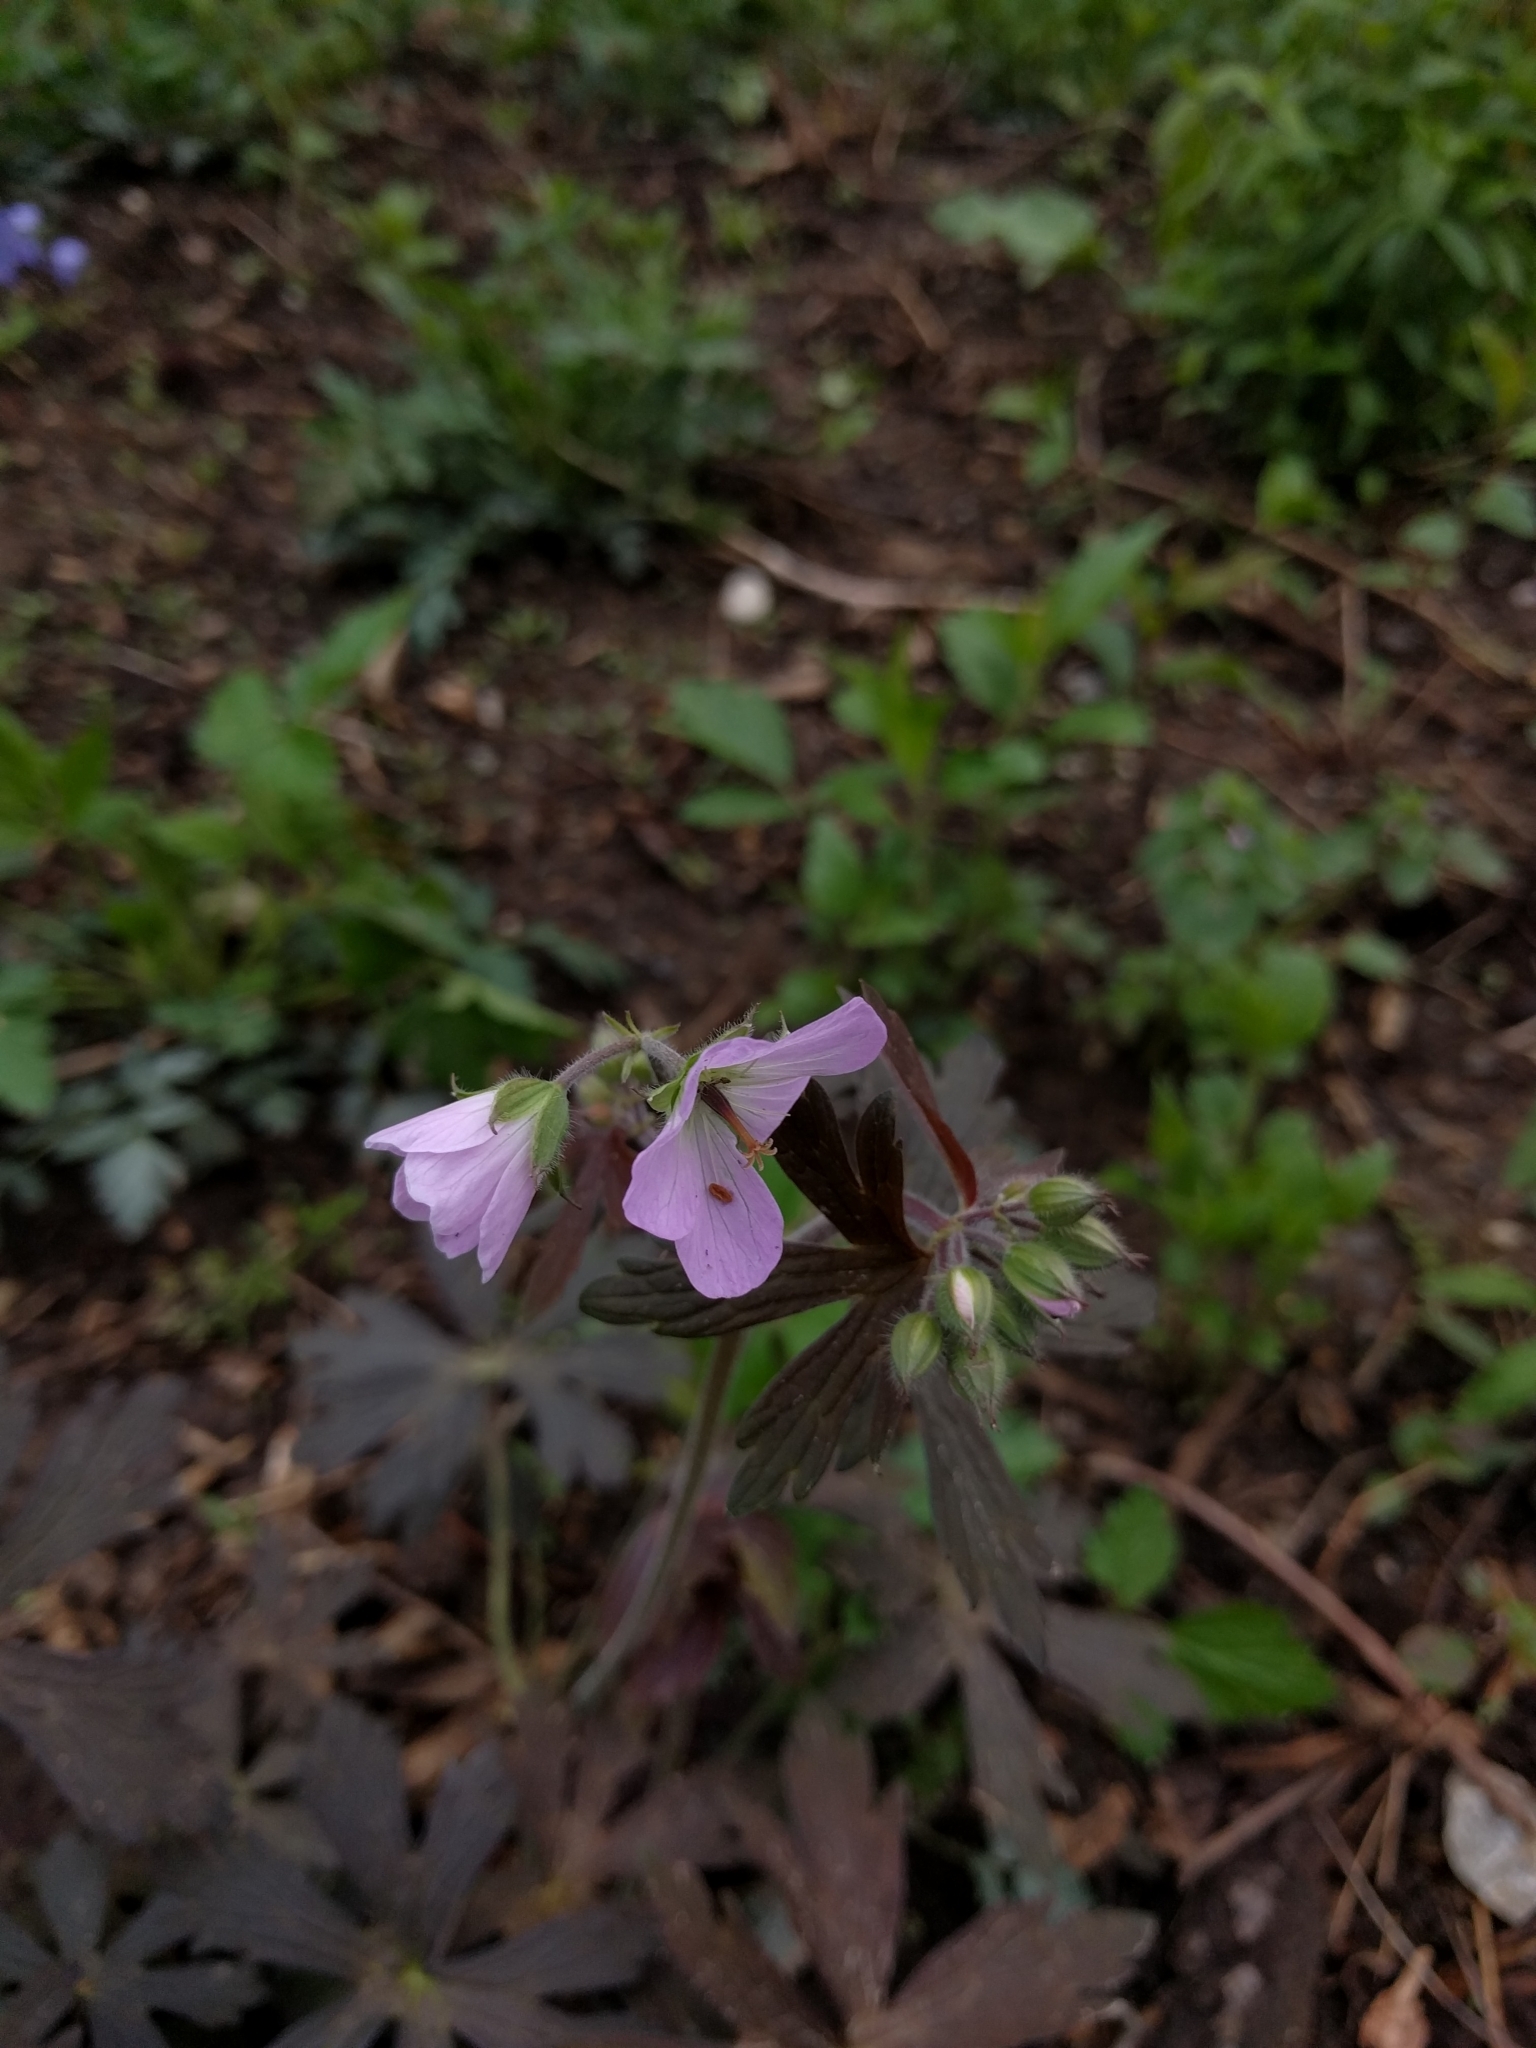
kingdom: Plantae
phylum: Tracheophyta
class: Magnoliopsida
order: Geraniales
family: Geraniaceae
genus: Geranium
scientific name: Geranium maculatum
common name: Spotted geranium
